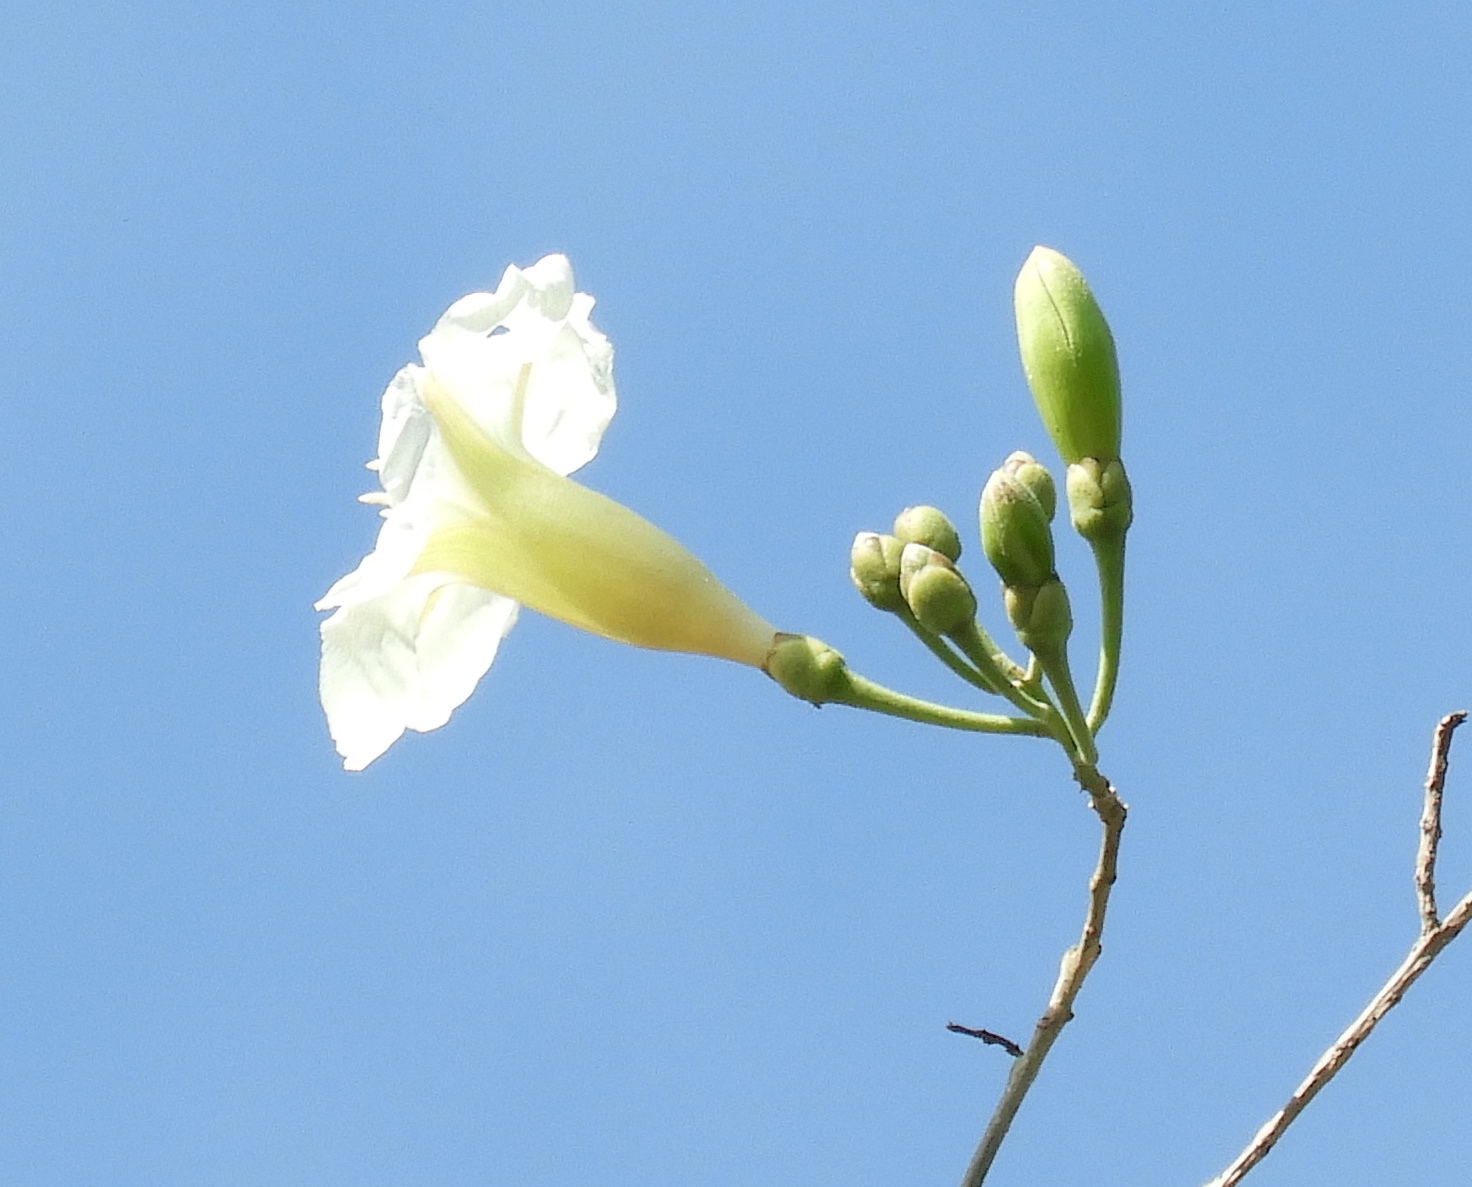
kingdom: Plantae
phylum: Tracheophyta
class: Magnoliopsida
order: Solanales
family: Convolvulaceae
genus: Ipomoea
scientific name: Ipomoea arborescens
